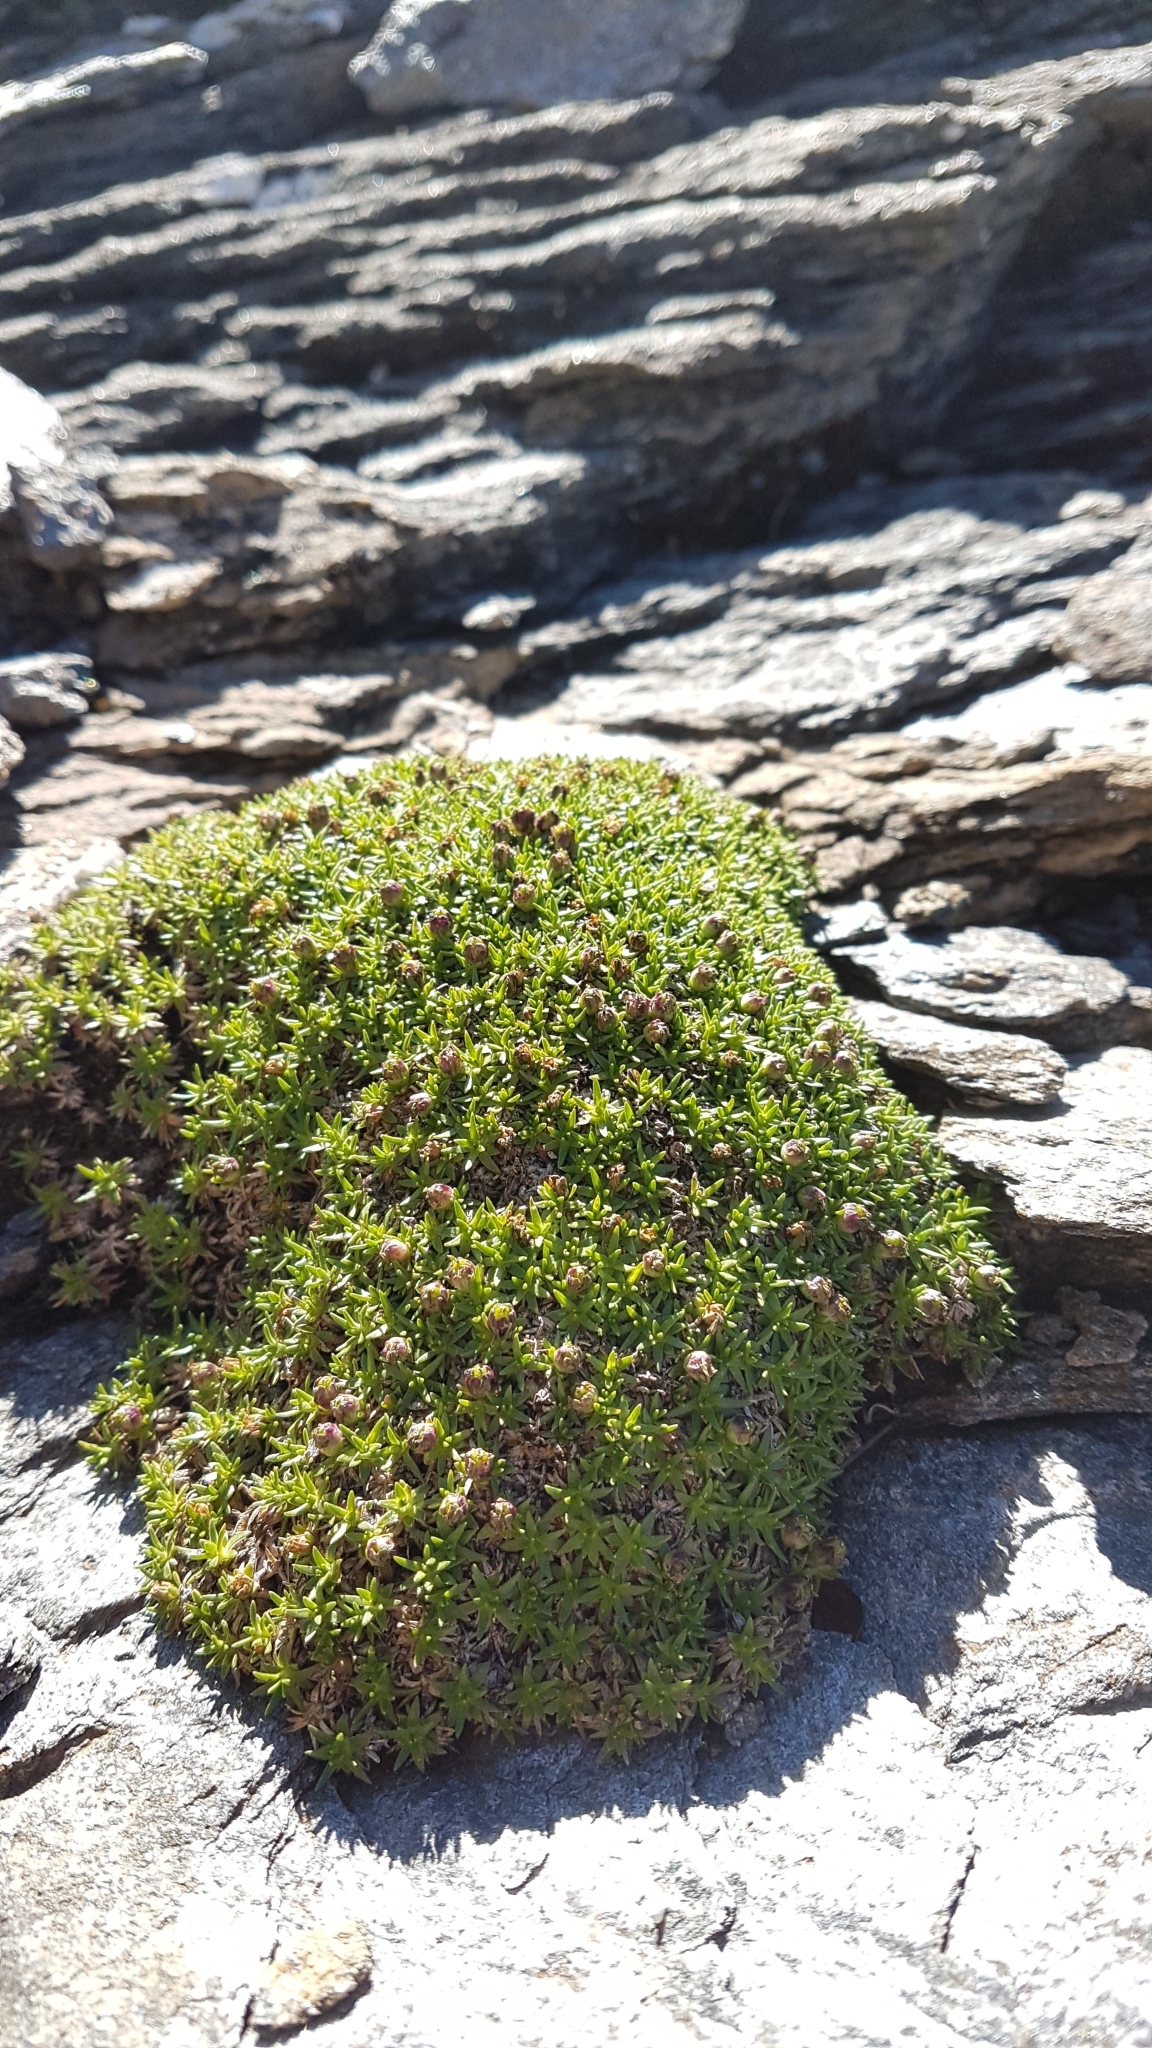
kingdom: Plantae
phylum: Tracheophyta
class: Magnoliopsida
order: Caryophyllales
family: Caryophyllaceae
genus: Silene
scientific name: Silene acaulis
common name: Moss campion
